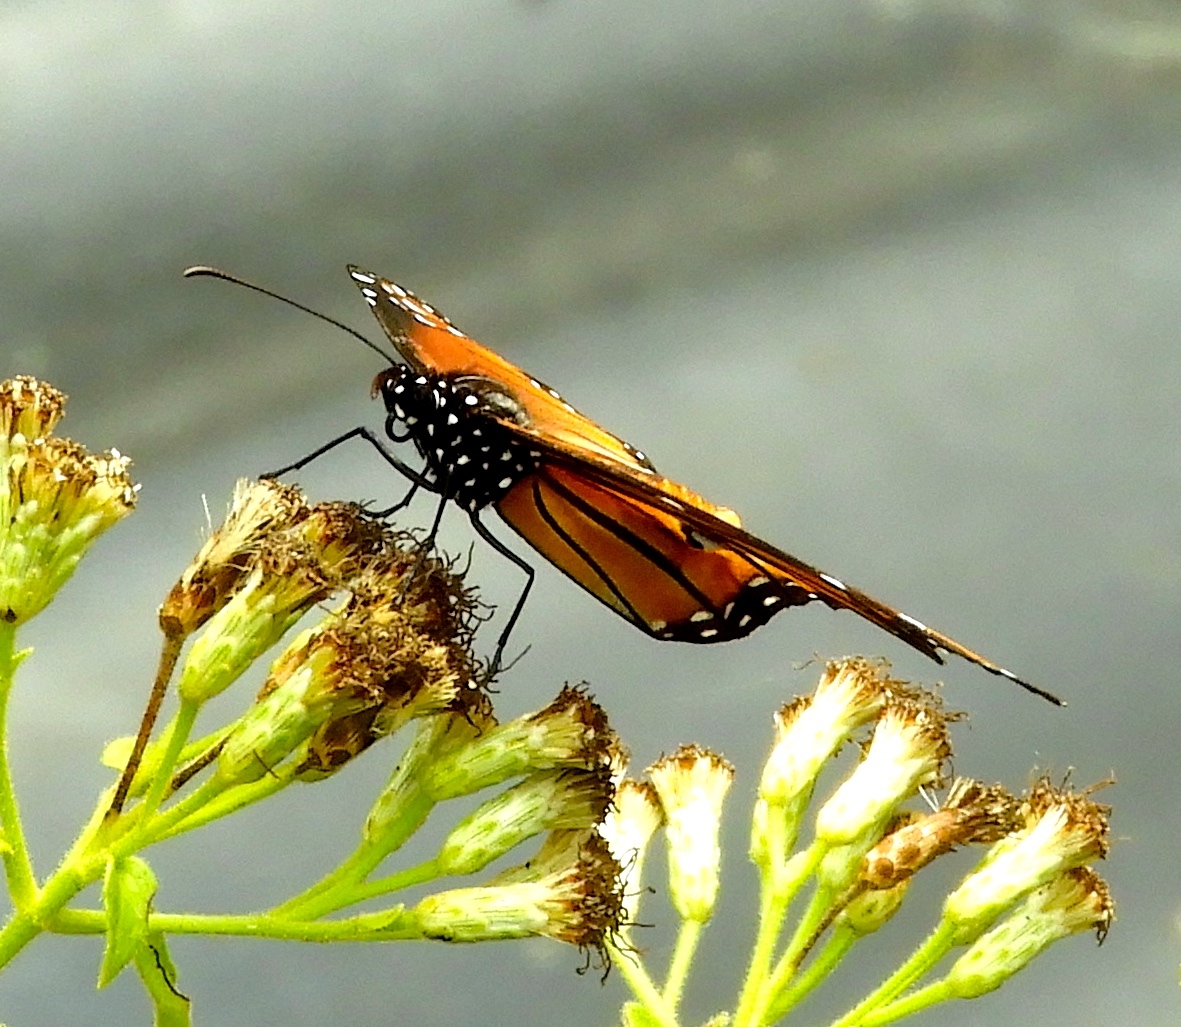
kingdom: Animalia
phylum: Arthropoda
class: Insecta
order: Lepidoptera
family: Nymphalidae
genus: Danaus
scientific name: Danaus eresimus
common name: Soldier
